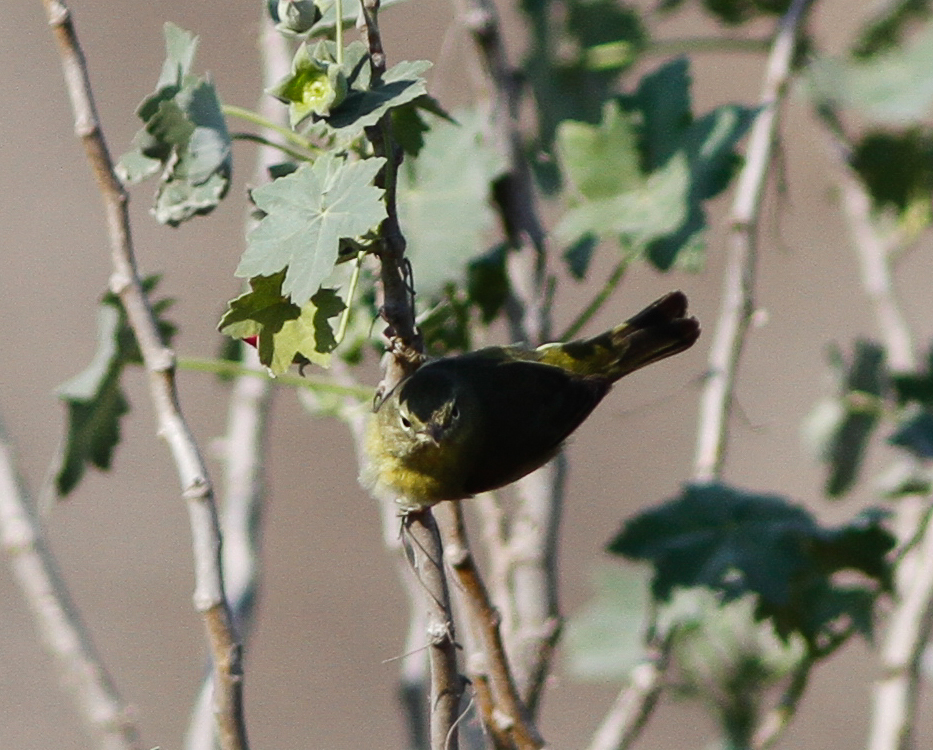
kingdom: Animalia
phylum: Chordata
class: Aves
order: Passeriformes
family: Parulidae
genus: Leiothlypis
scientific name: Leiothlypis celata
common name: Orange-crowned warbler
